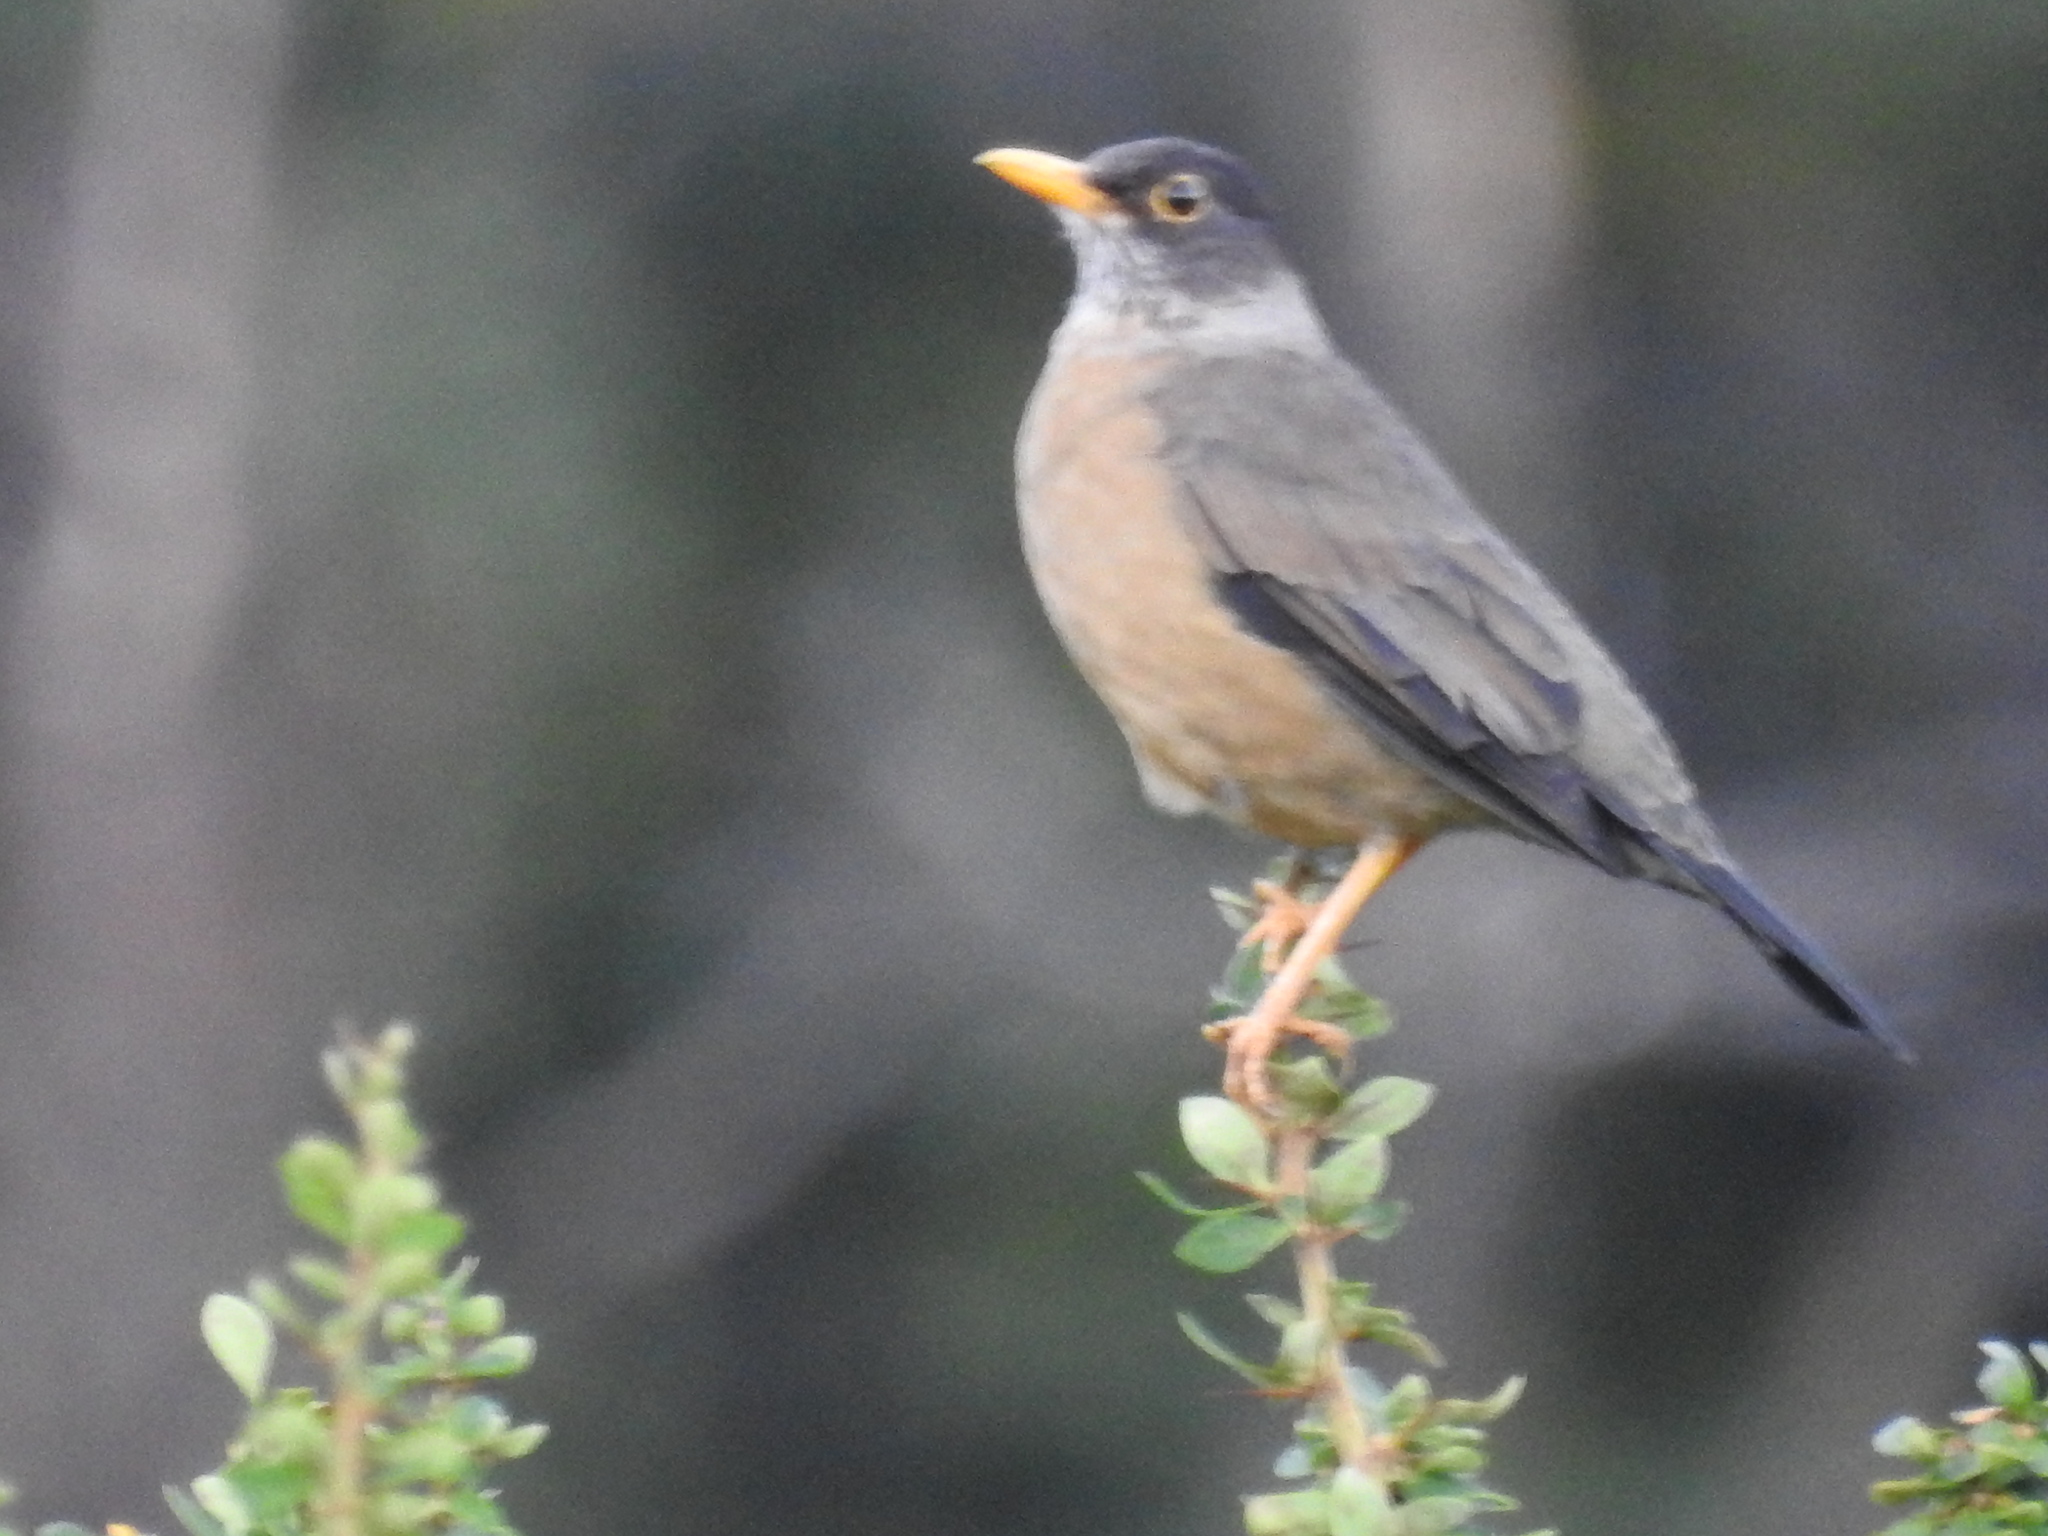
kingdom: Animalia
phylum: Chordata
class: Aves
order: Passeriformes
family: Turdidae
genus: Turdus
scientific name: Turdus falcklandii
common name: Austral thrush
